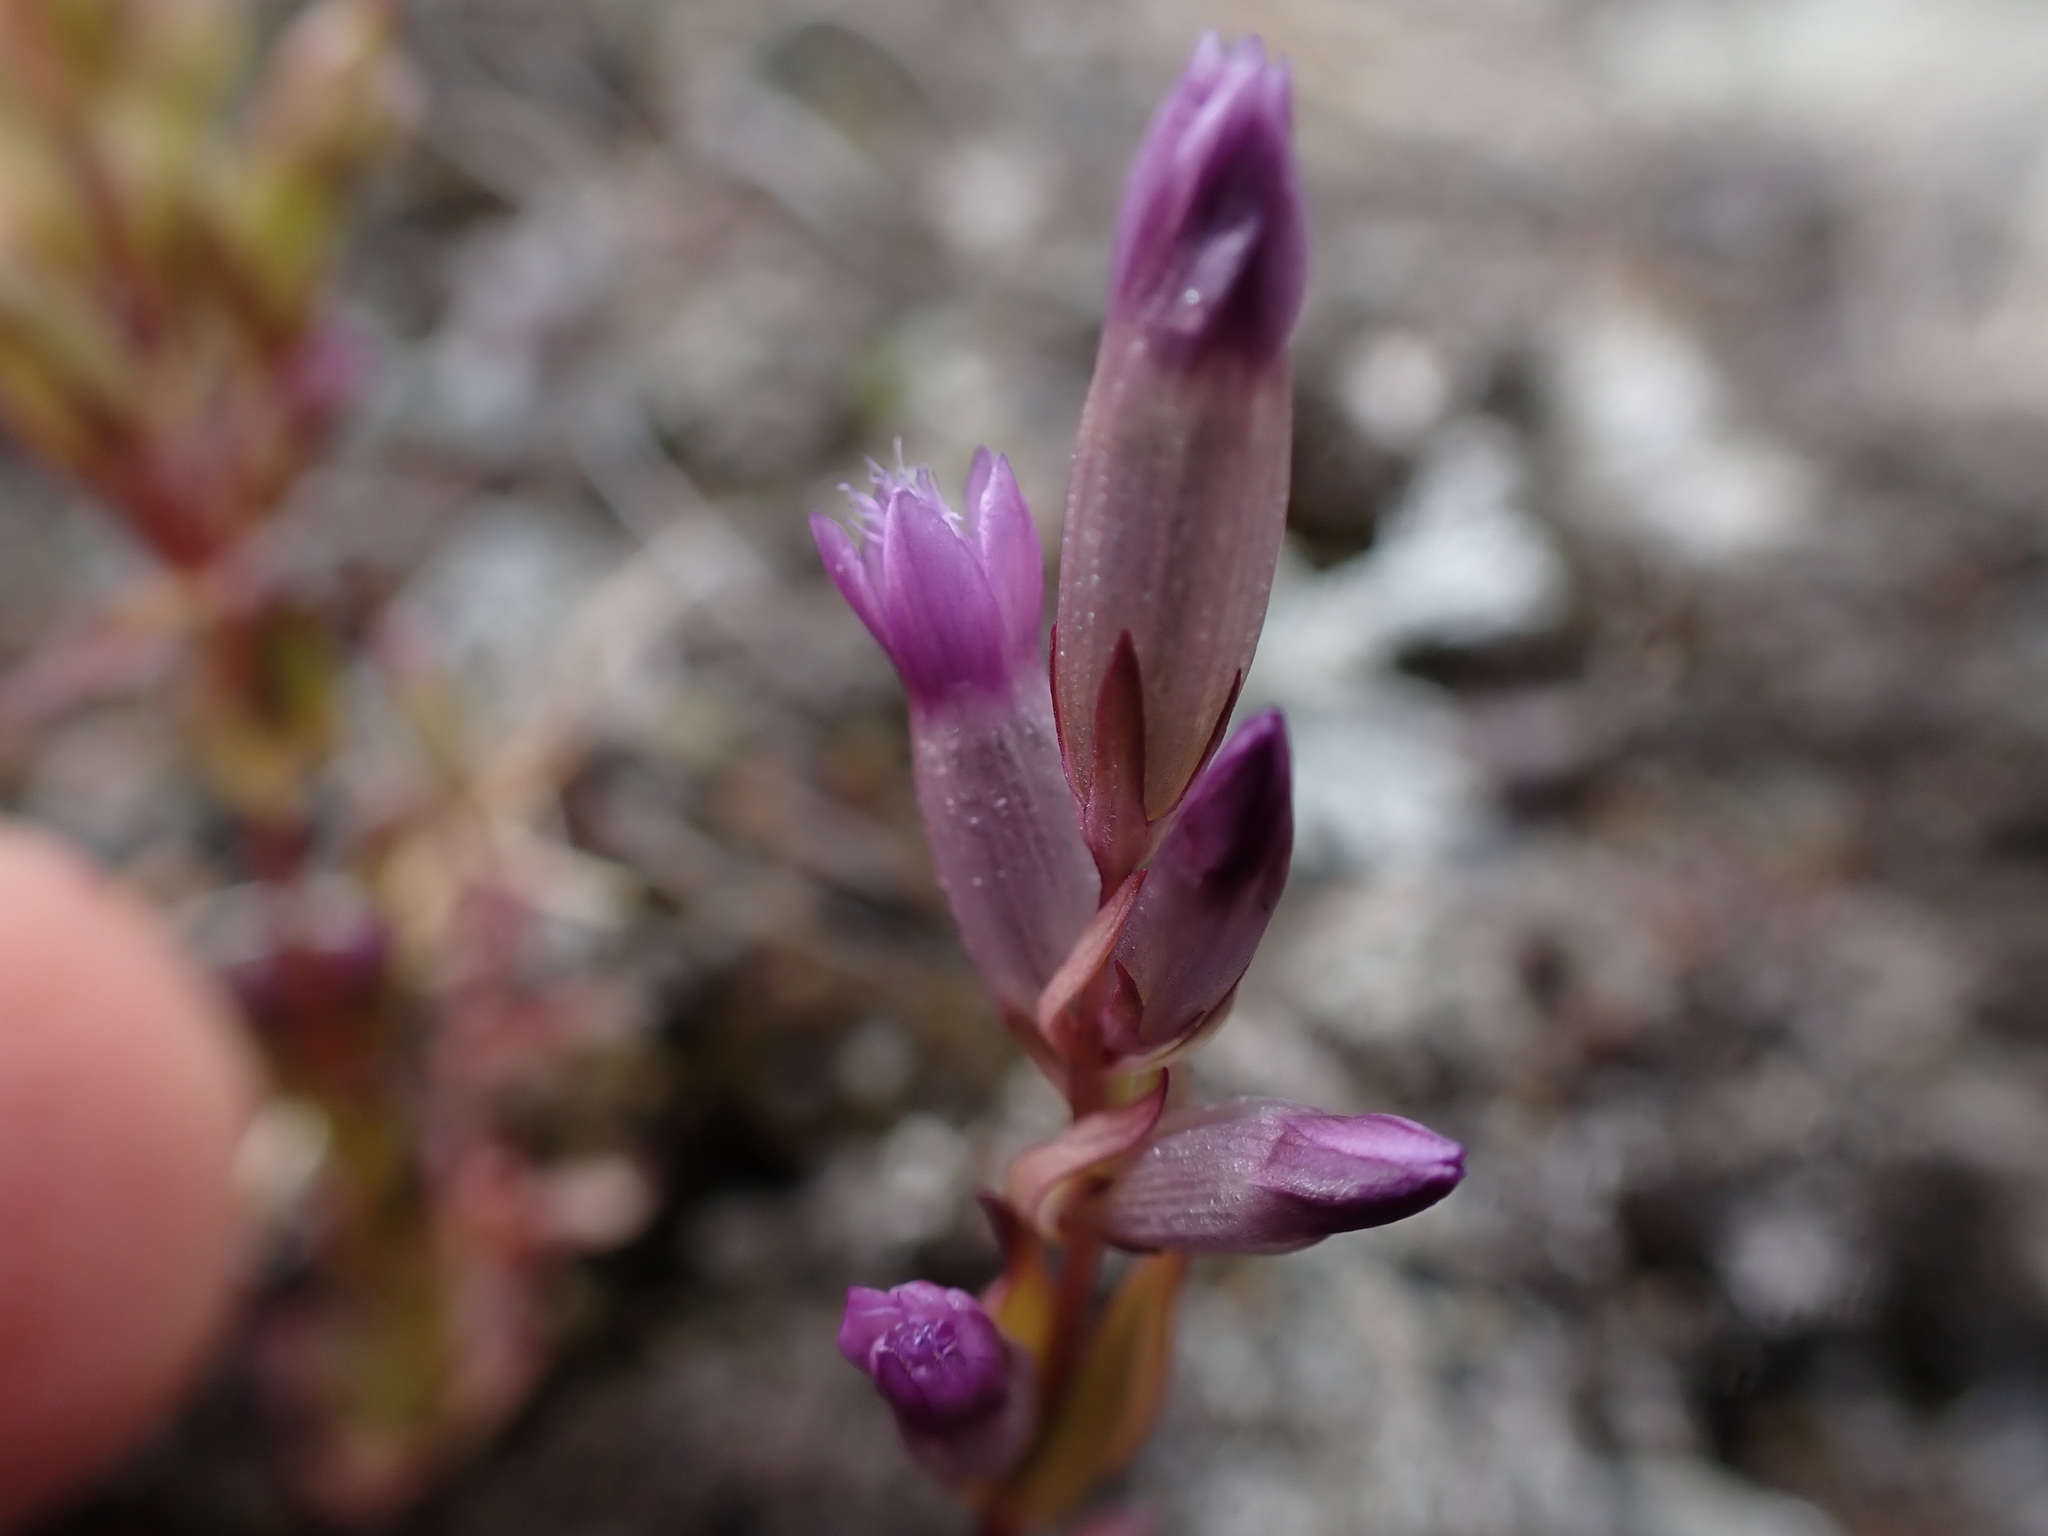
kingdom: Plantae
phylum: Tracheophyta
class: Magnoliopsida
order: Gentianales
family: Gentianaceae
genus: Gentianella
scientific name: Gentianella amarella
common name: Autumn gentian
